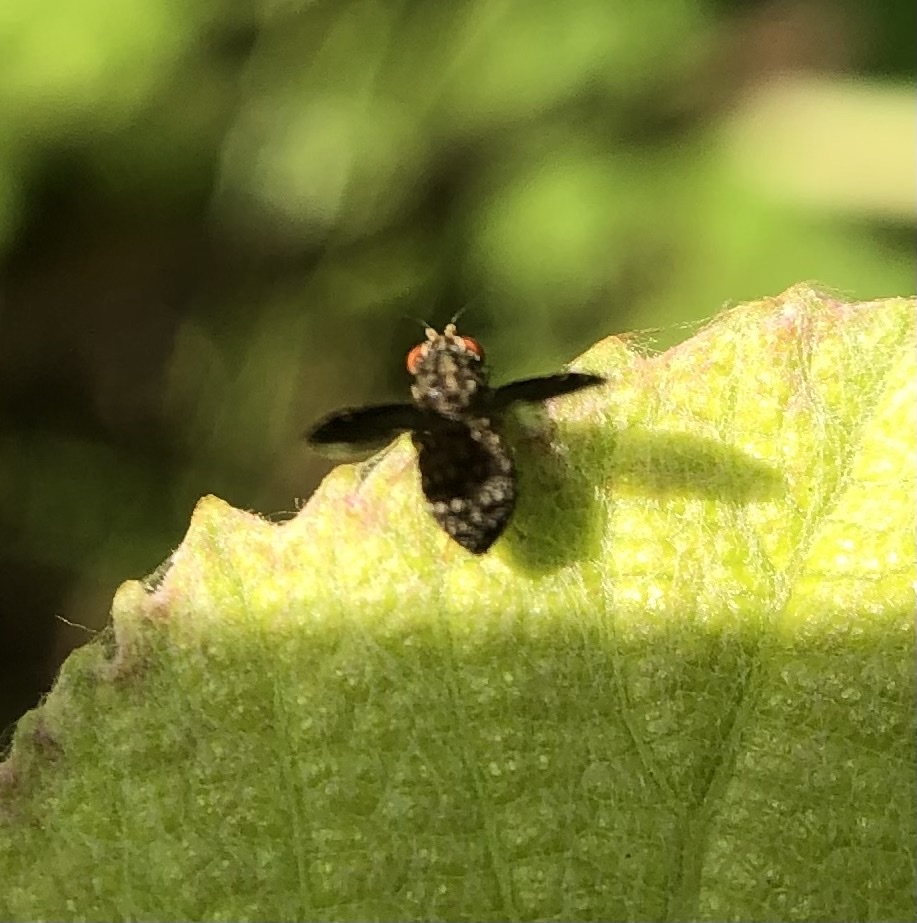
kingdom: Animalia
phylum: Arthropoda
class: Insecta
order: Diptera
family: Lauxaniidae
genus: Trypetisoma
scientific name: Trypetisoma sticticum
